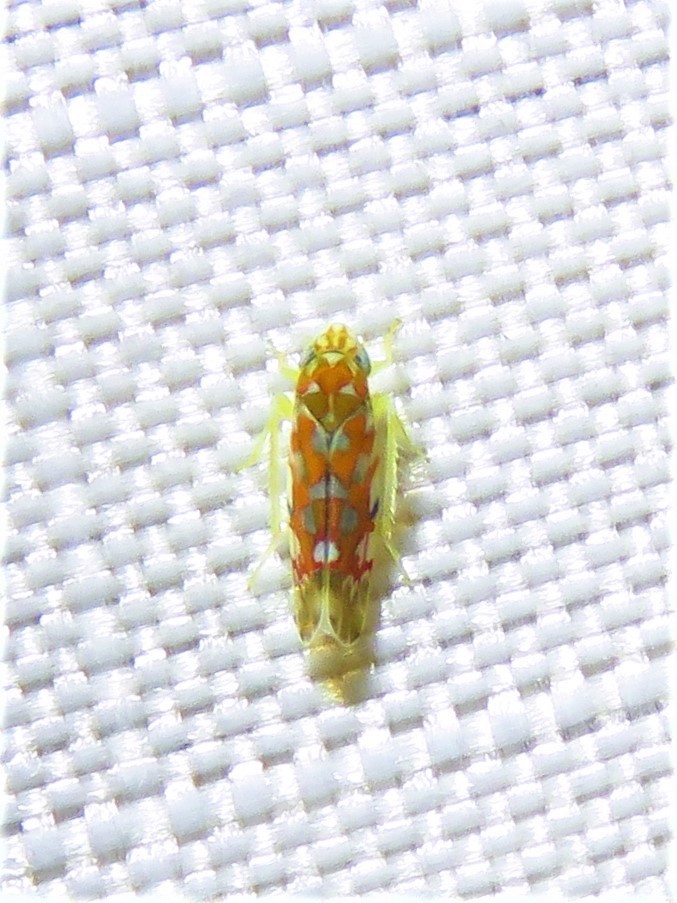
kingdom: Animalia
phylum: Arthropoda
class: Insecta
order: Hemiptera
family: Cicadellidae
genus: Erythroneura
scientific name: Erythroneura festiva
